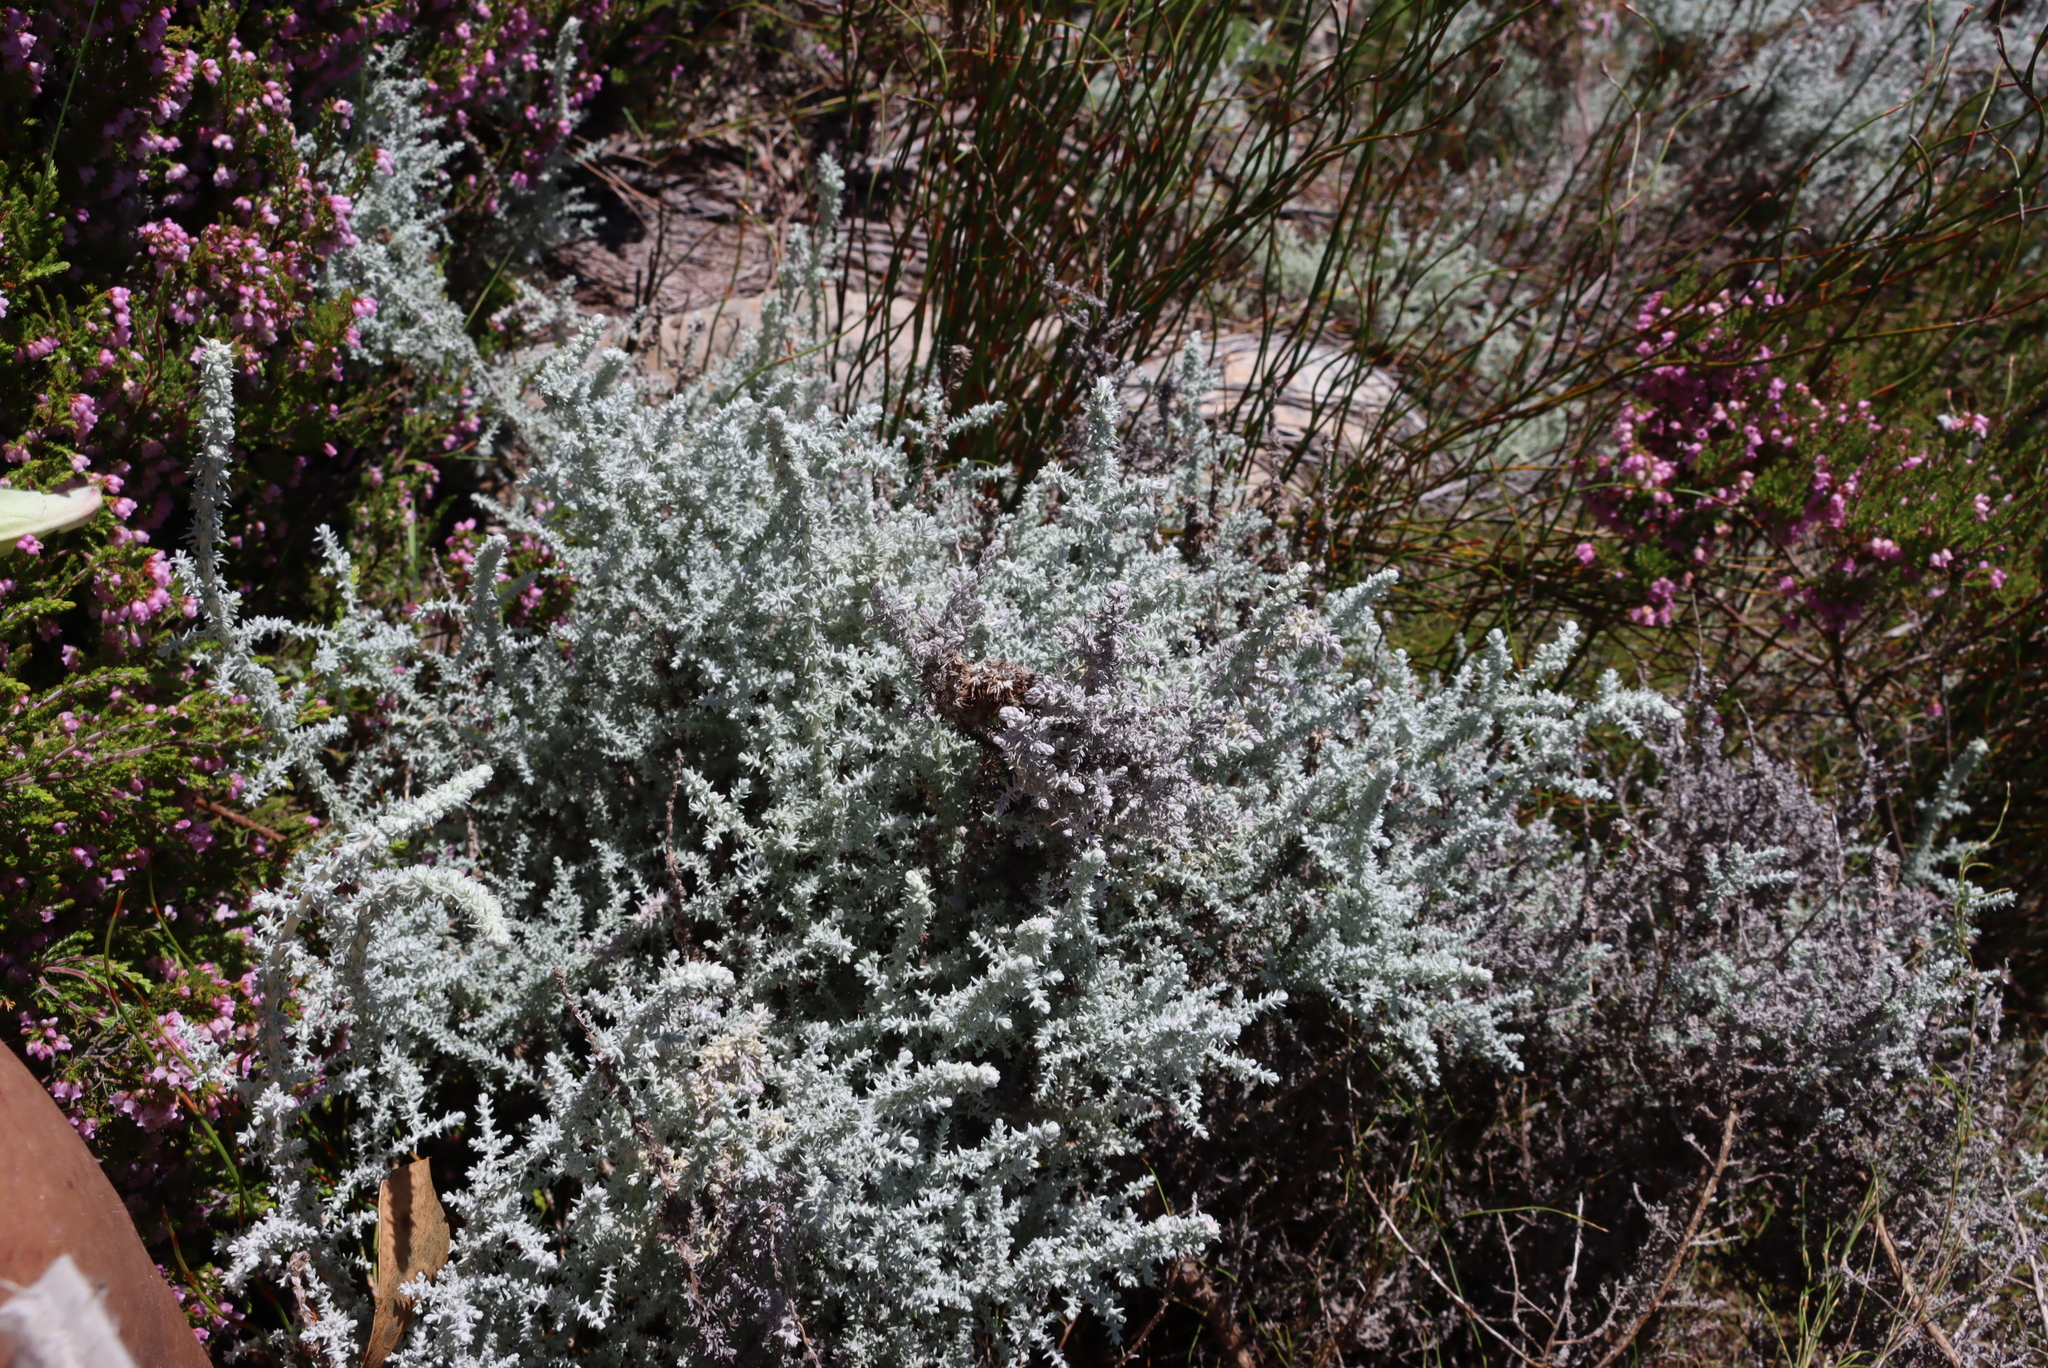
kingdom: Plantae
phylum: Tracheophyta
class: Magnoliopsida
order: Asterales
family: Asteraceae
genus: Seriphium
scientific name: Seriphium plumosum
